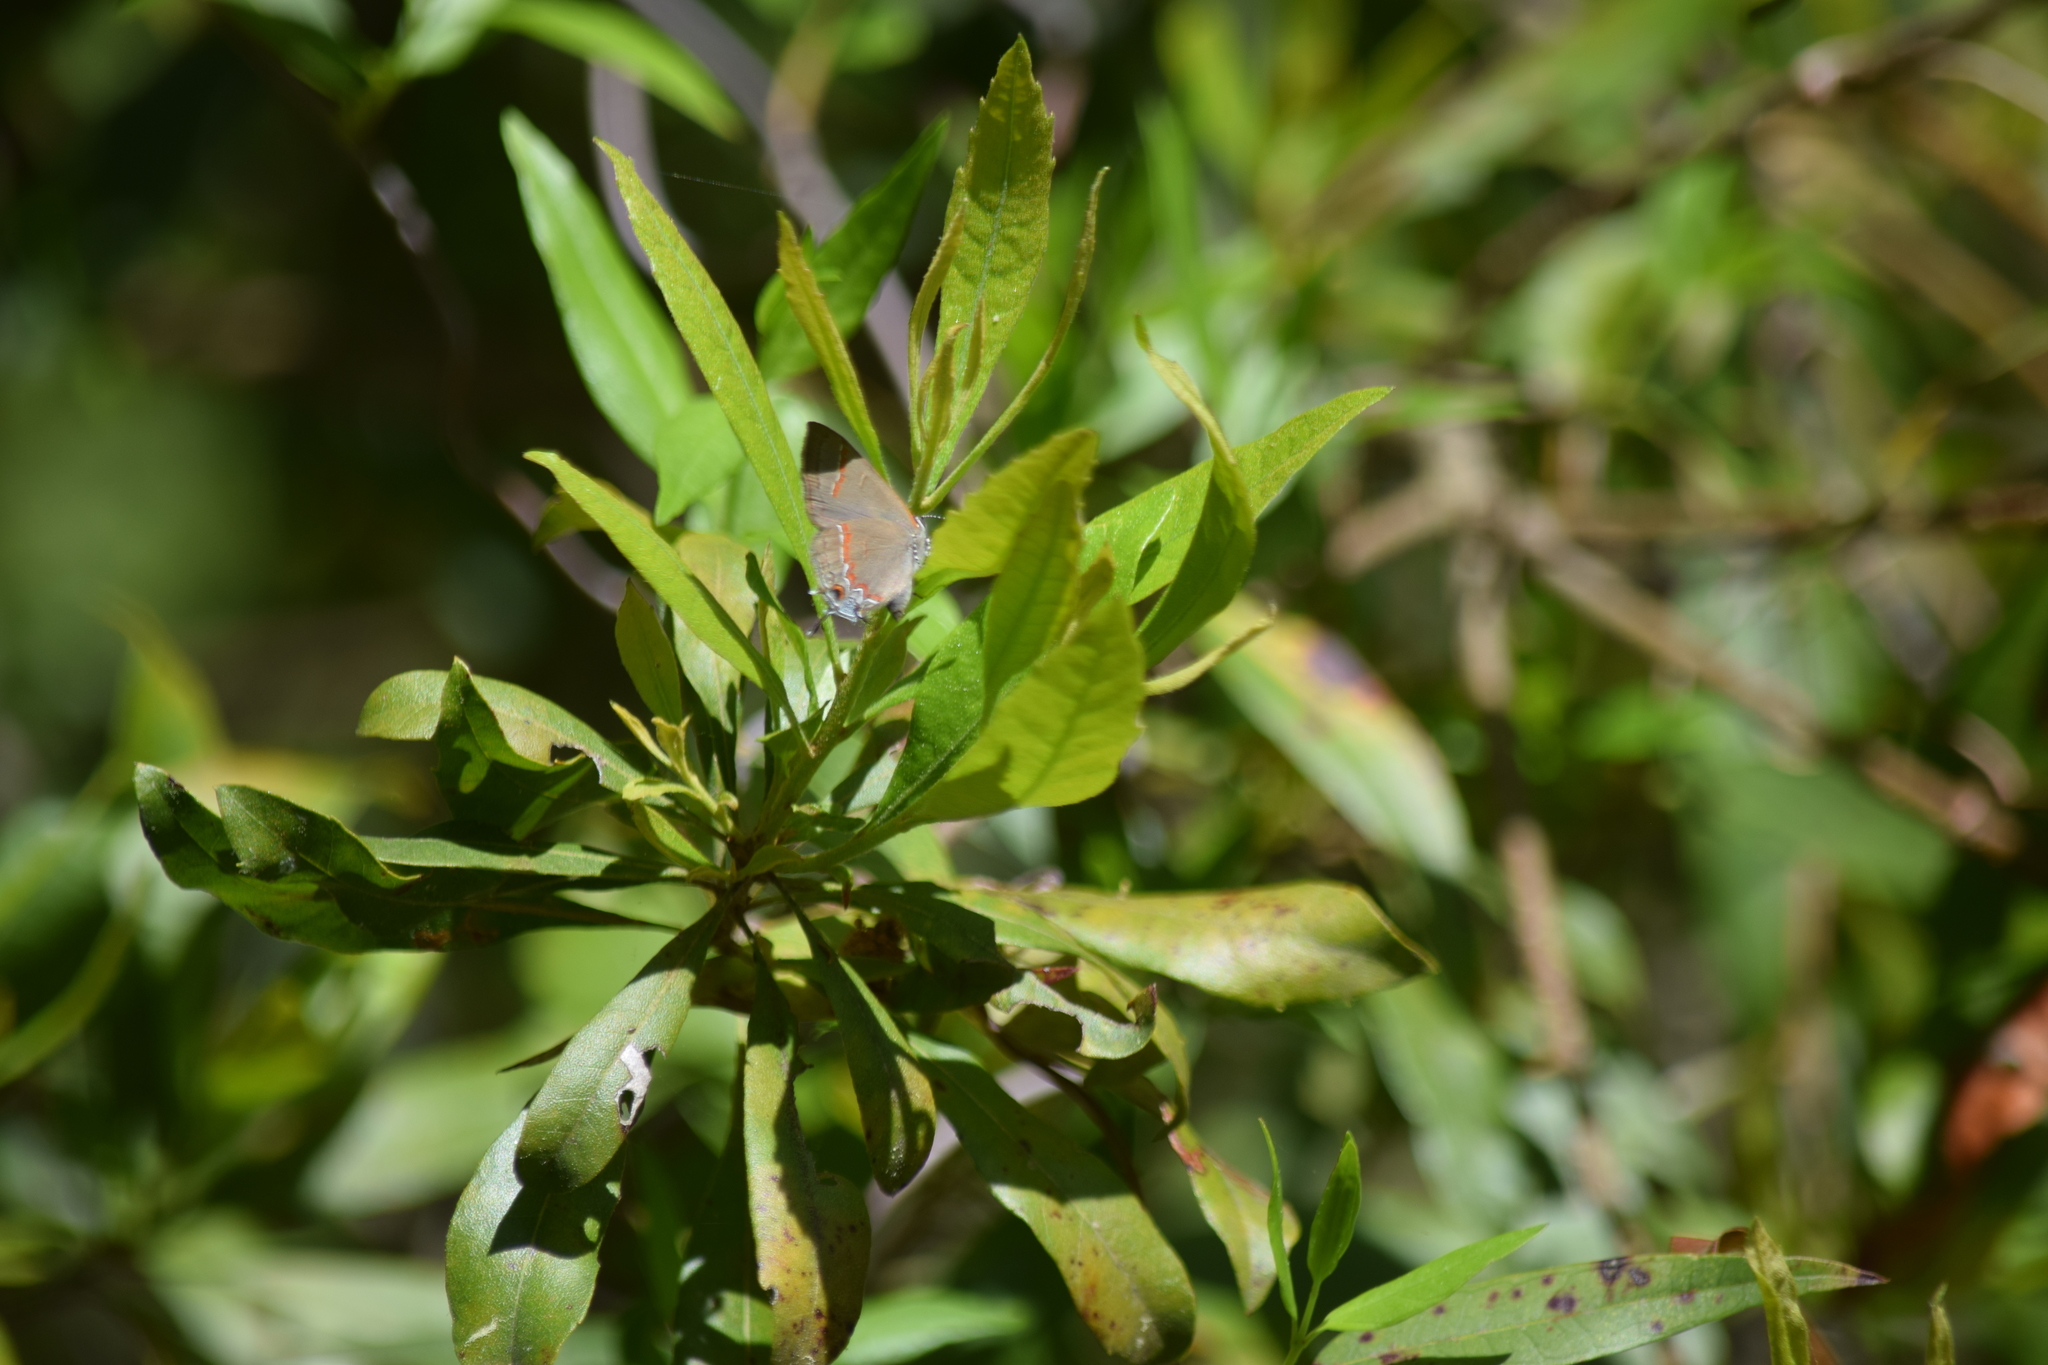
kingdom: Animalia
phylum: Arthropoda
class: Insecta
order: Lepidoptera
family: Lycaenidae
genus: Calycopis
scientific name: Calycopis cecrops
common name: Red-banded hairstreak
